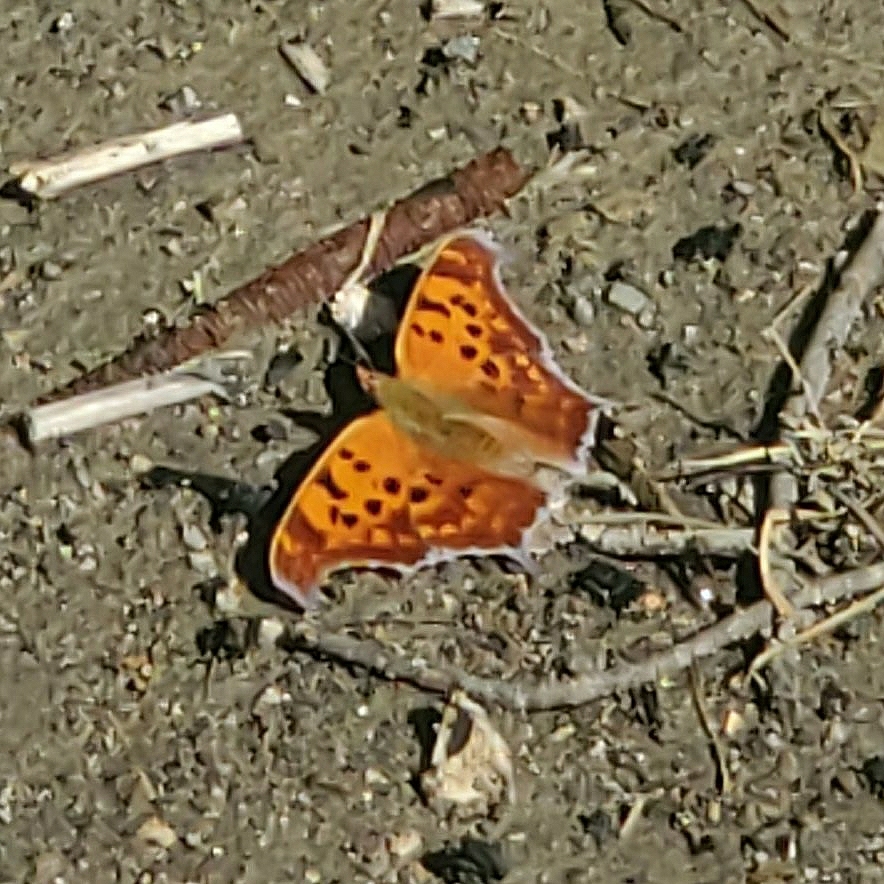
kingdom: Animalia
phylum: Arthropoda
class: Insecta
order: Lepidoptera
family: Nymphalidae
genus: Polygonia
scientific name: Polygonia interrogationis
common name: Question mark
